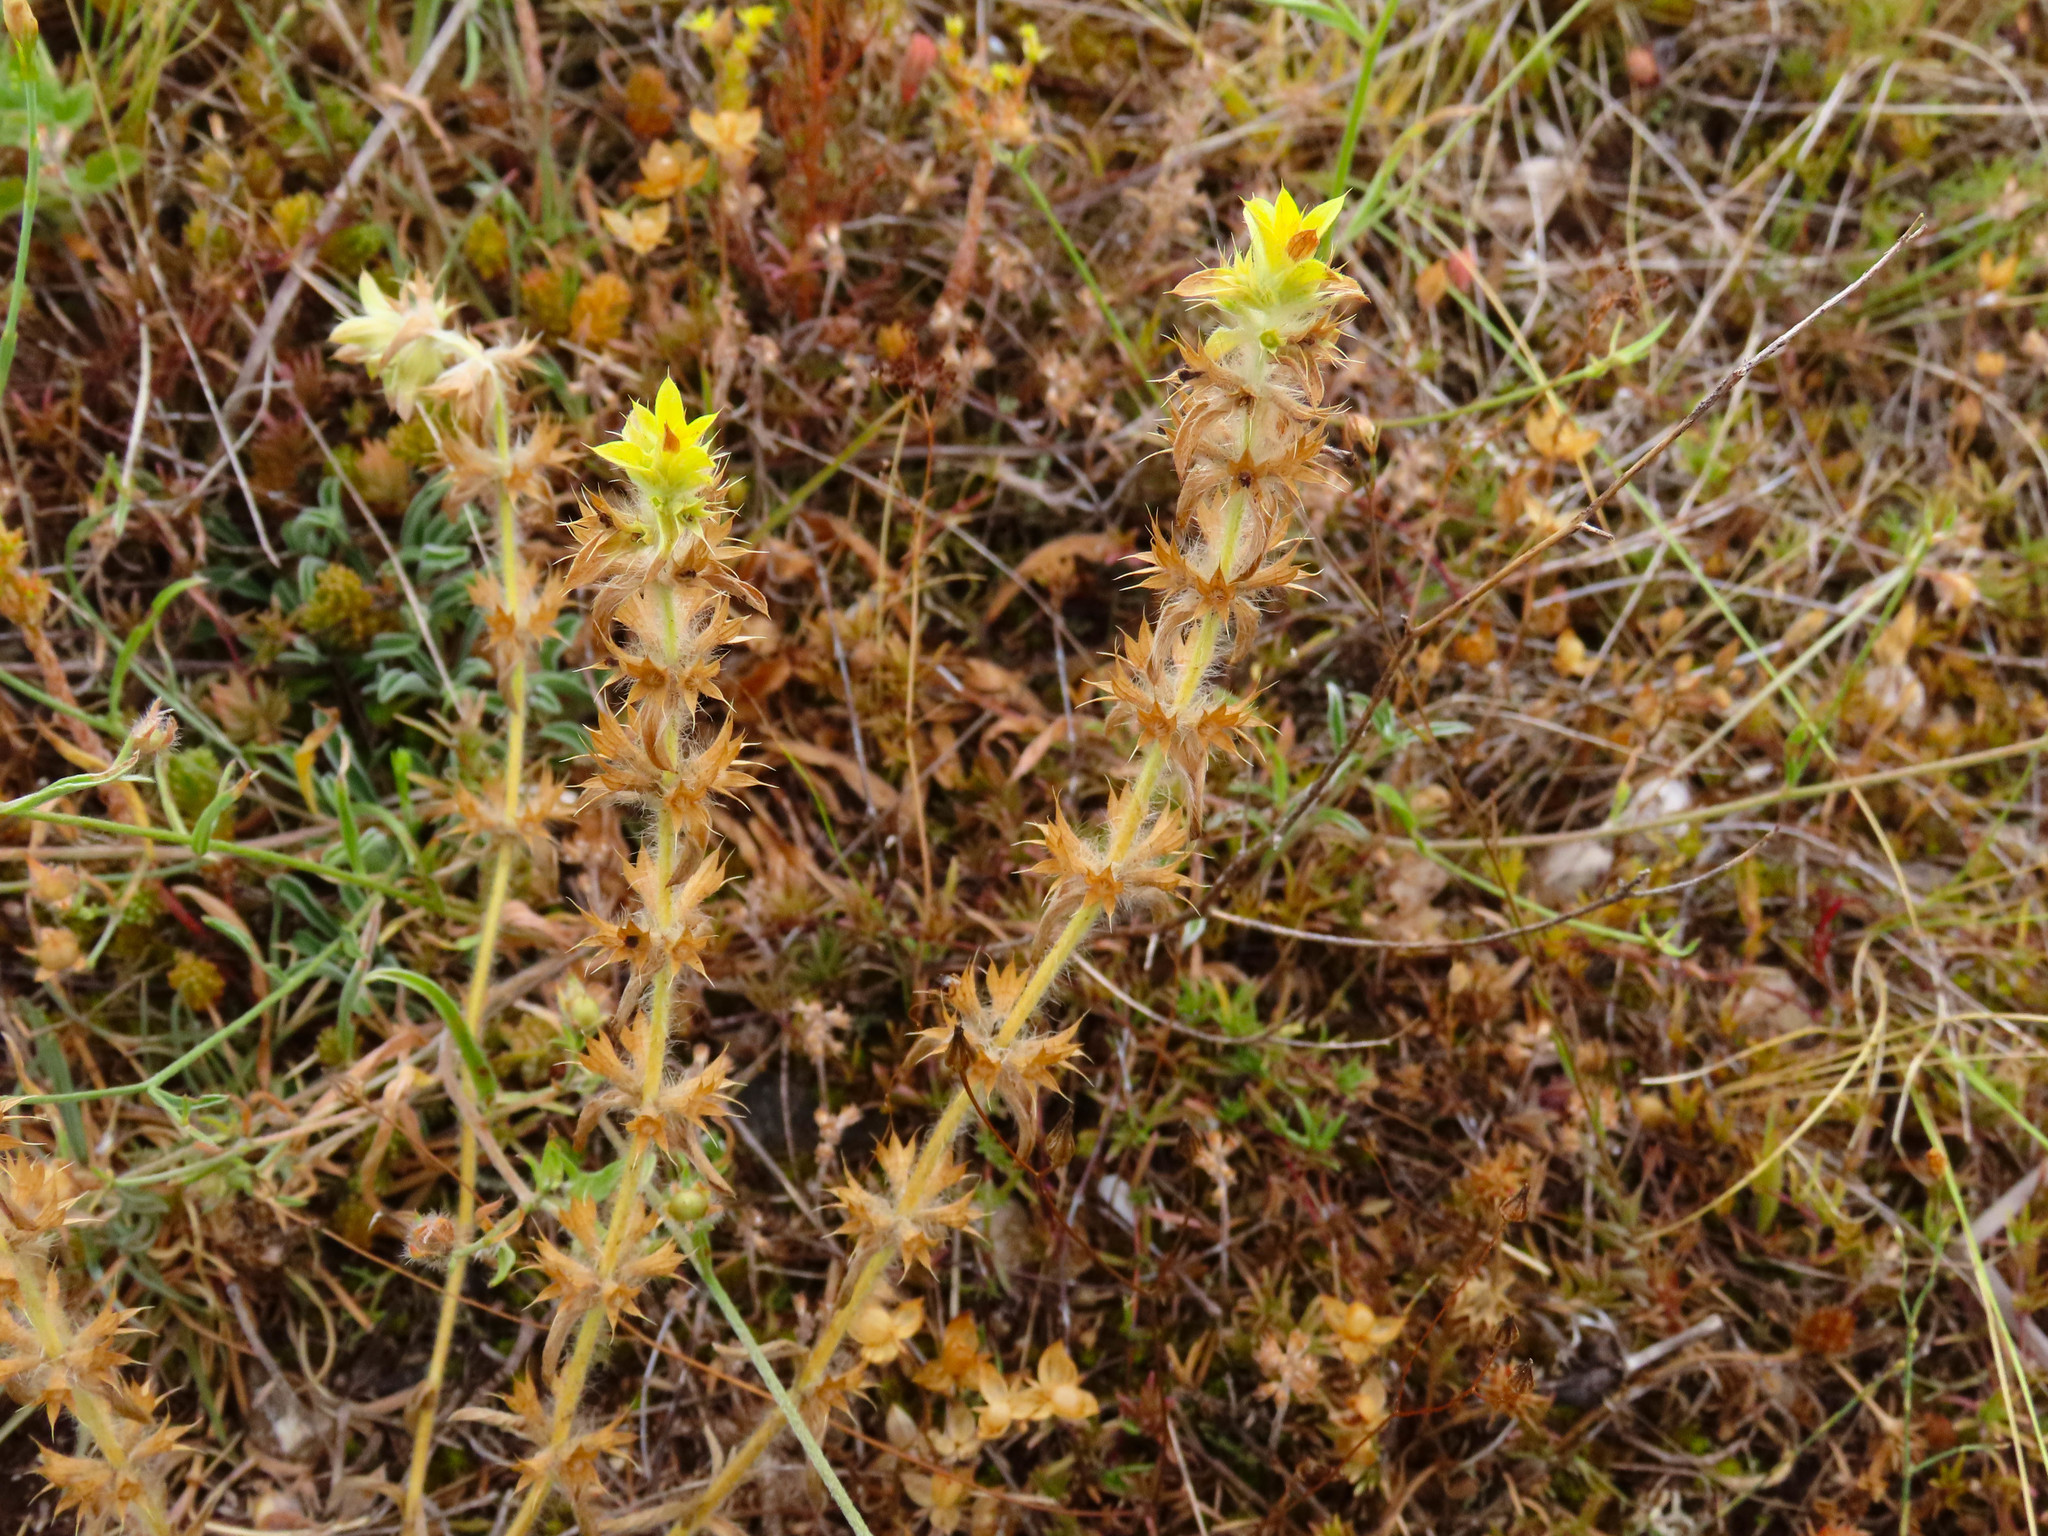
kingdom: Plantae
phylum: Tracheophyta
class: Magnoliopsida
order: Lamiales
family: Lamiaceae
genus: Sideritis
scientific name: Sideritis montana
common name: Mountain ironwort
